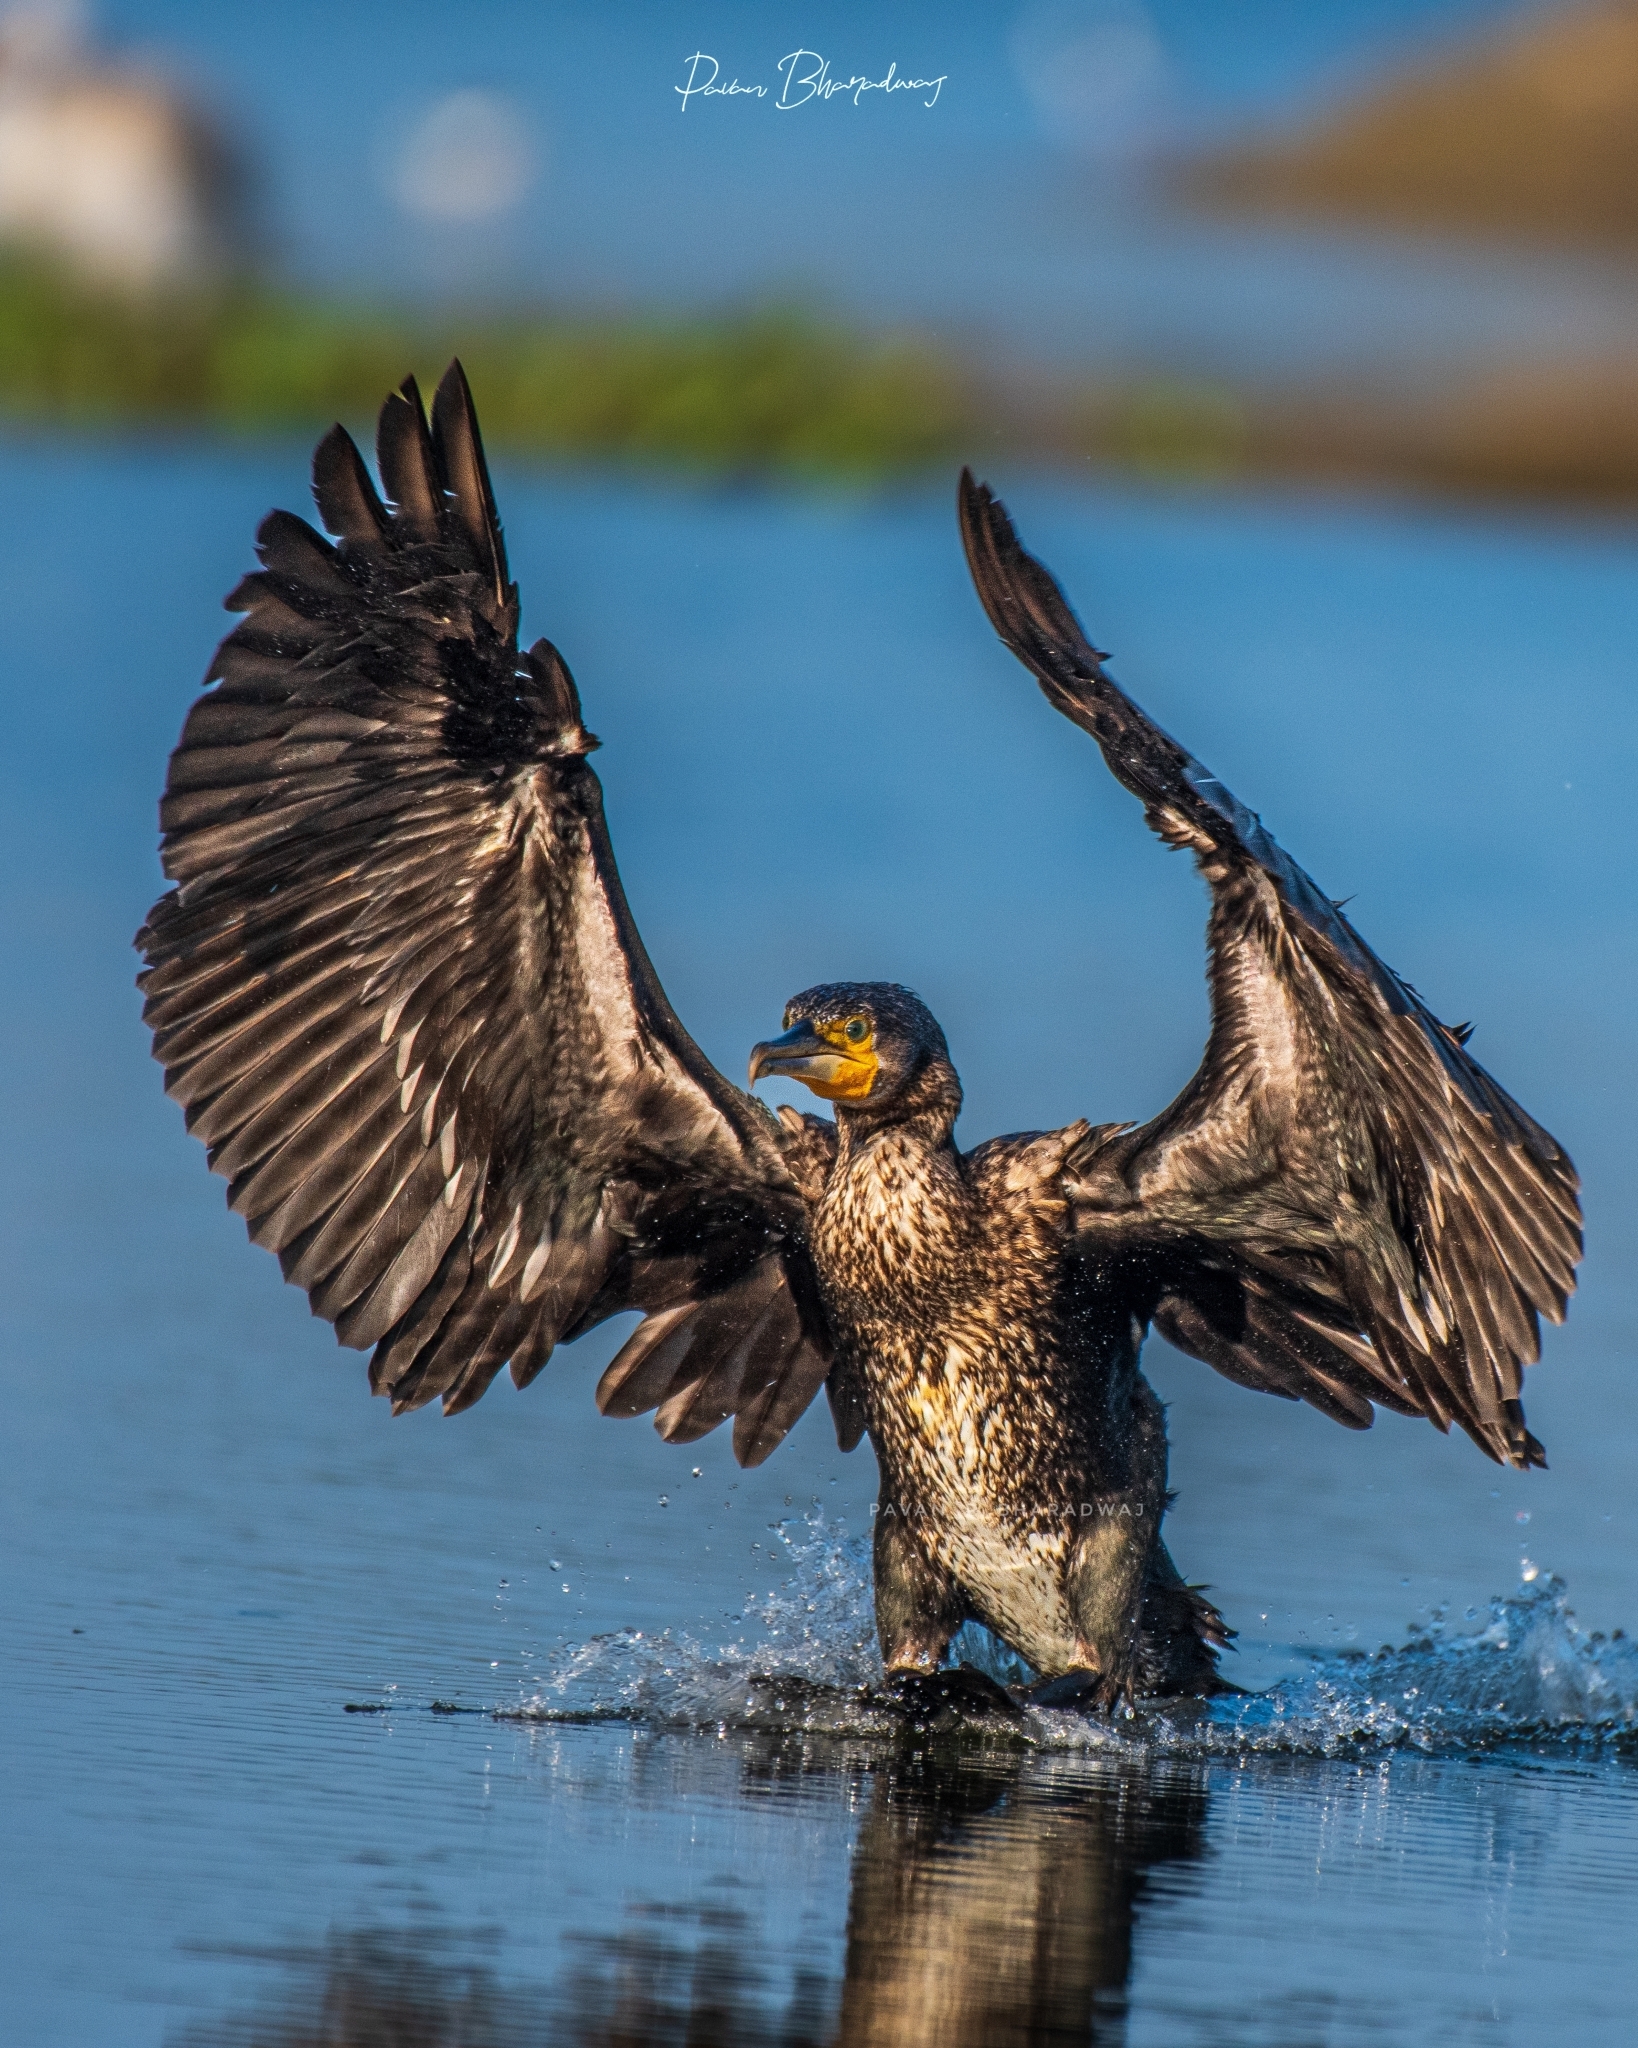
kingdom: Animalia
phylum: Chordata
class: Aves
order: Suliformes
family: Phalacrocoracidae
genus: Phalacrocorax
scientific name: Phalacrocorax carbo
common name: Great cormorant
